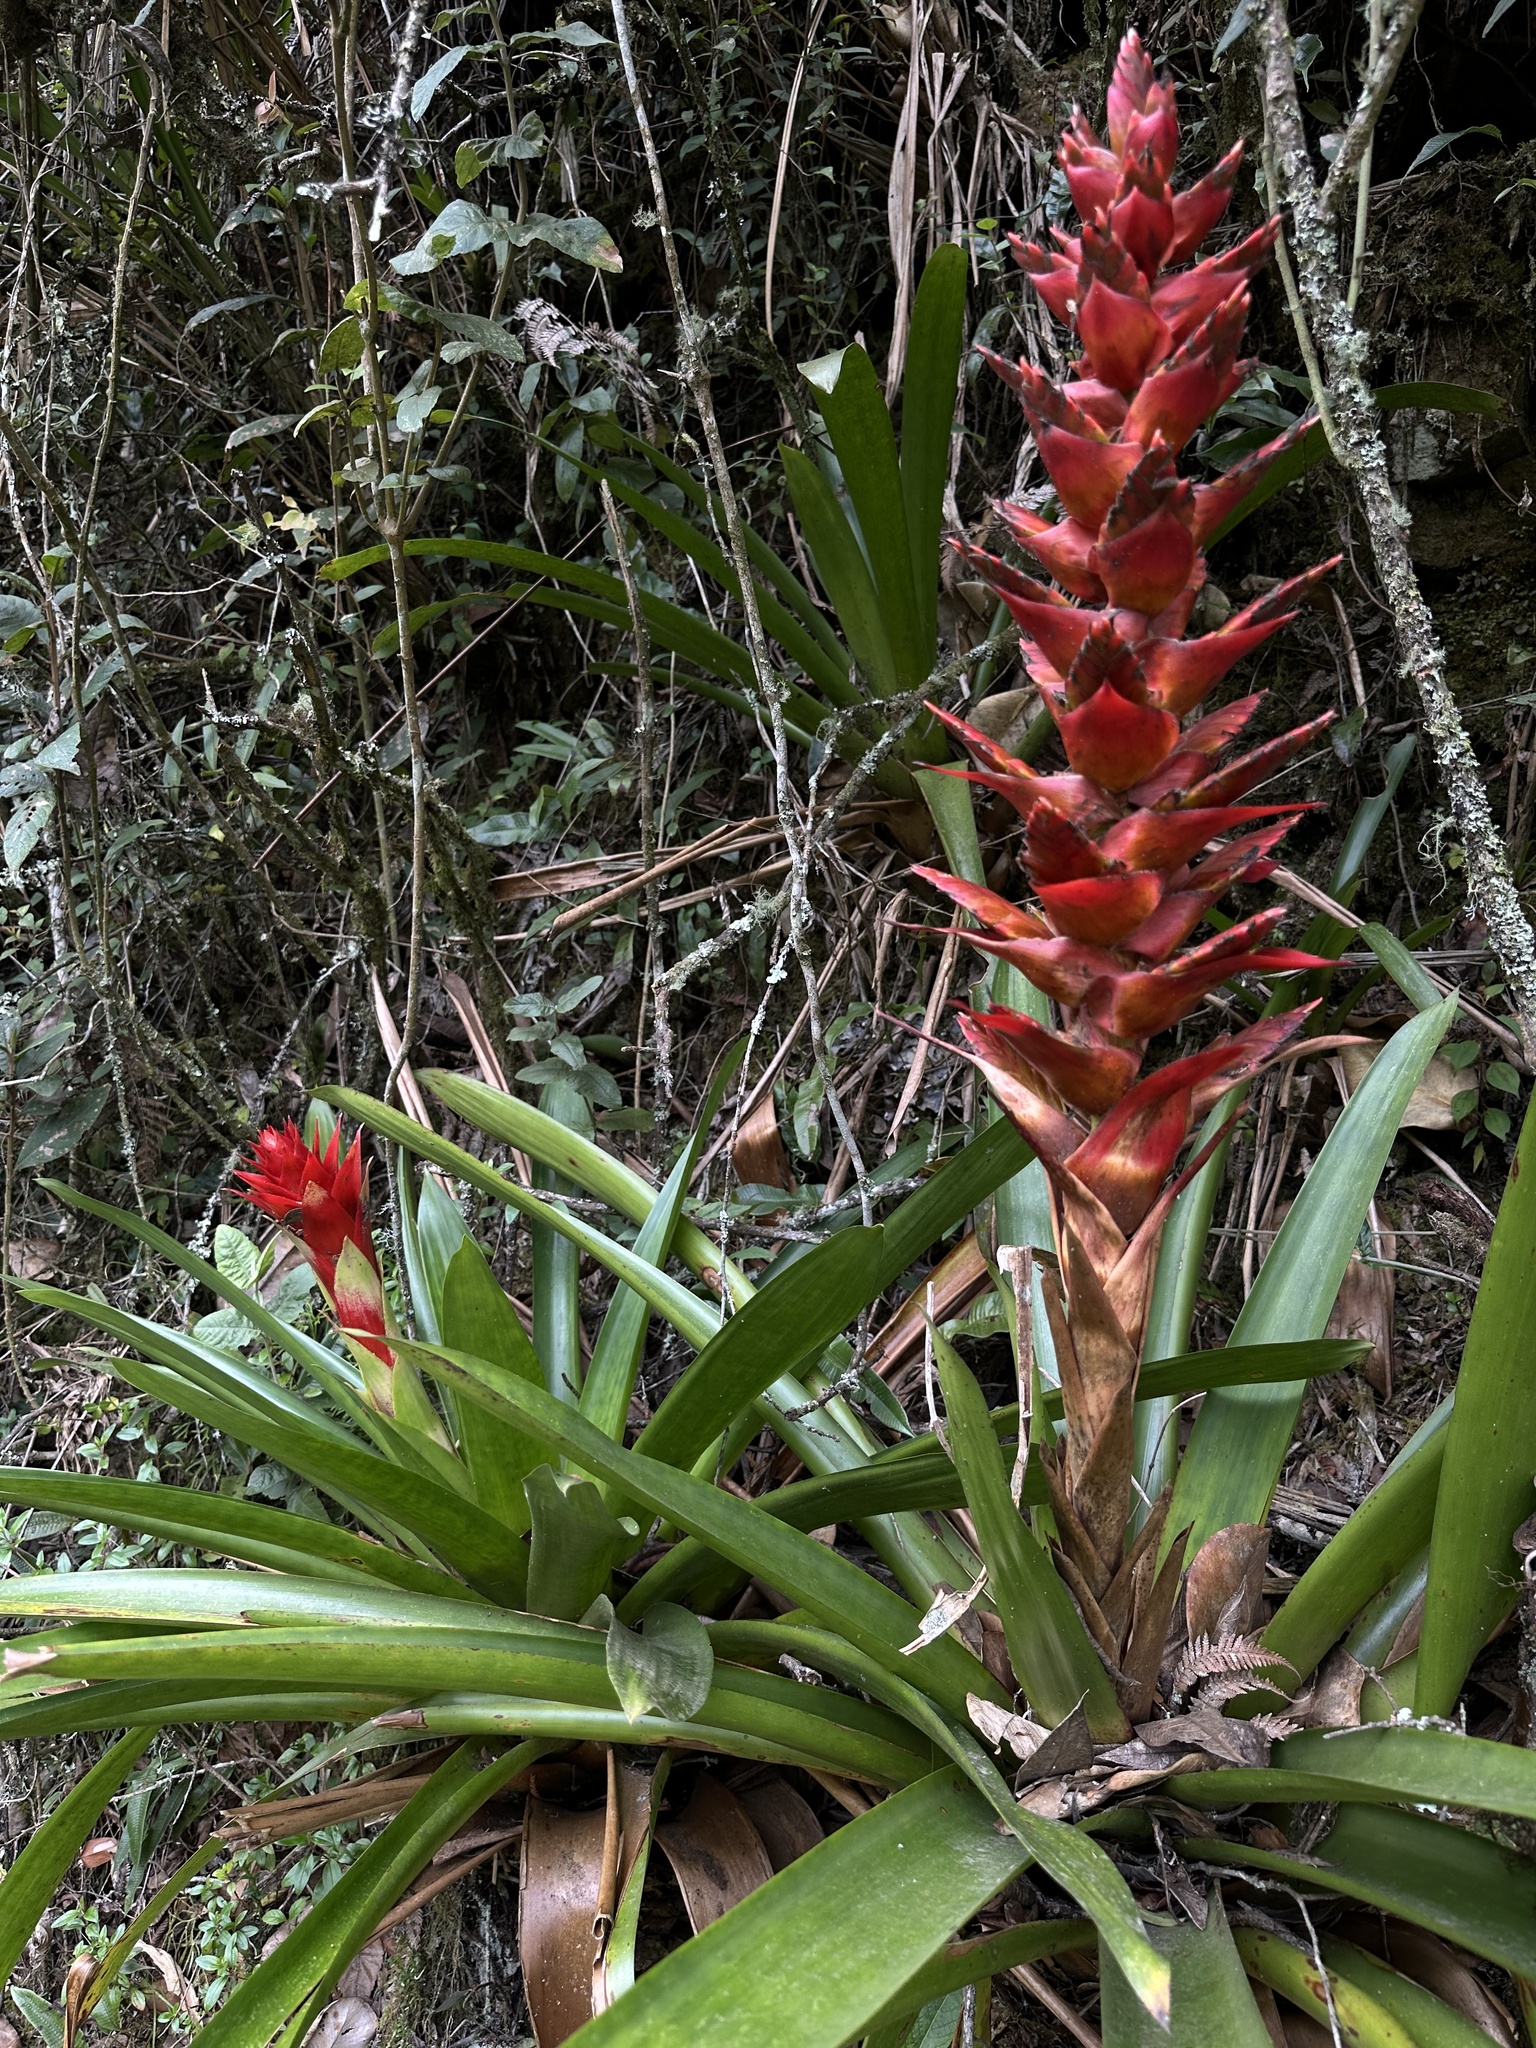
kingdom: Plantae
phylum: Tracheophyta
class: Liliopsida
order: Poales
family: Bromeliaceae
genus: Tillandsia
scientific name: Tillandsia schimperiana
